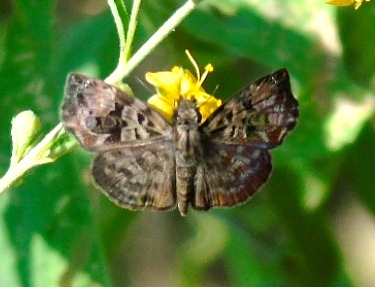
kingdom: Animalia
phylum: Arthropoda
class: Insecta
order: Lepidoptera
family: Hesperiidae
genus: Gorgythion
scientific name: Gorgythion begga
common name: Variegated skipper
